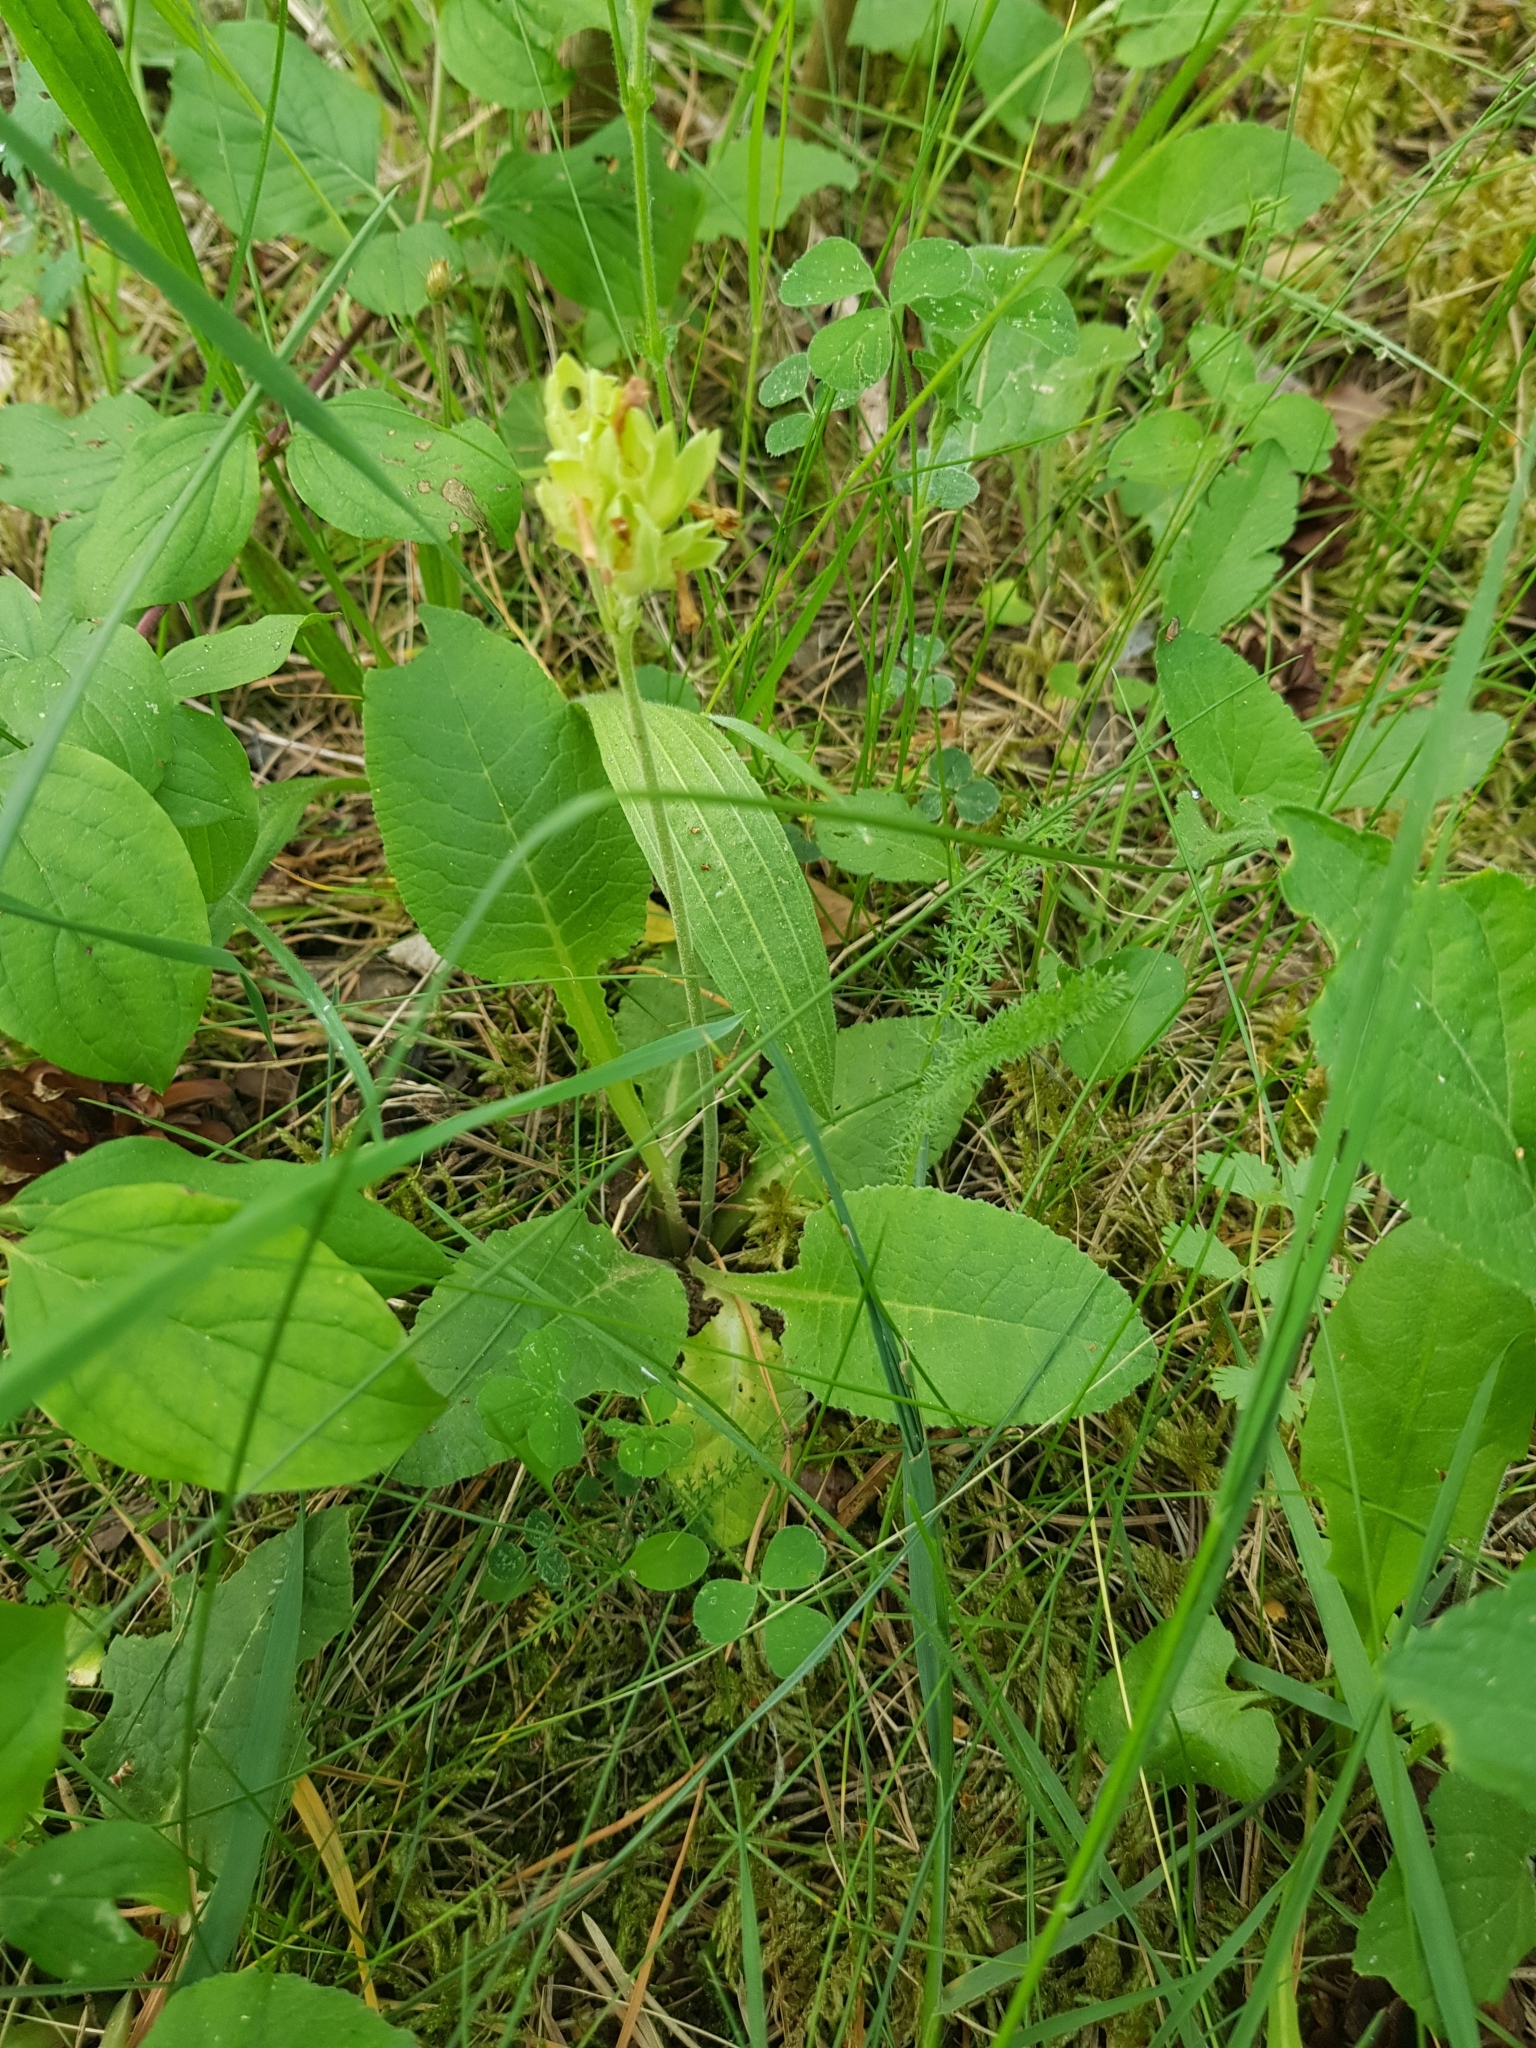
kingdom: Plantae
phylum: Tracheophyta
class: Magnoliopsida
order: Ericales
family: Primulaceae
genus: Primula
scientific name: Primula veris
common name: Cowslip
